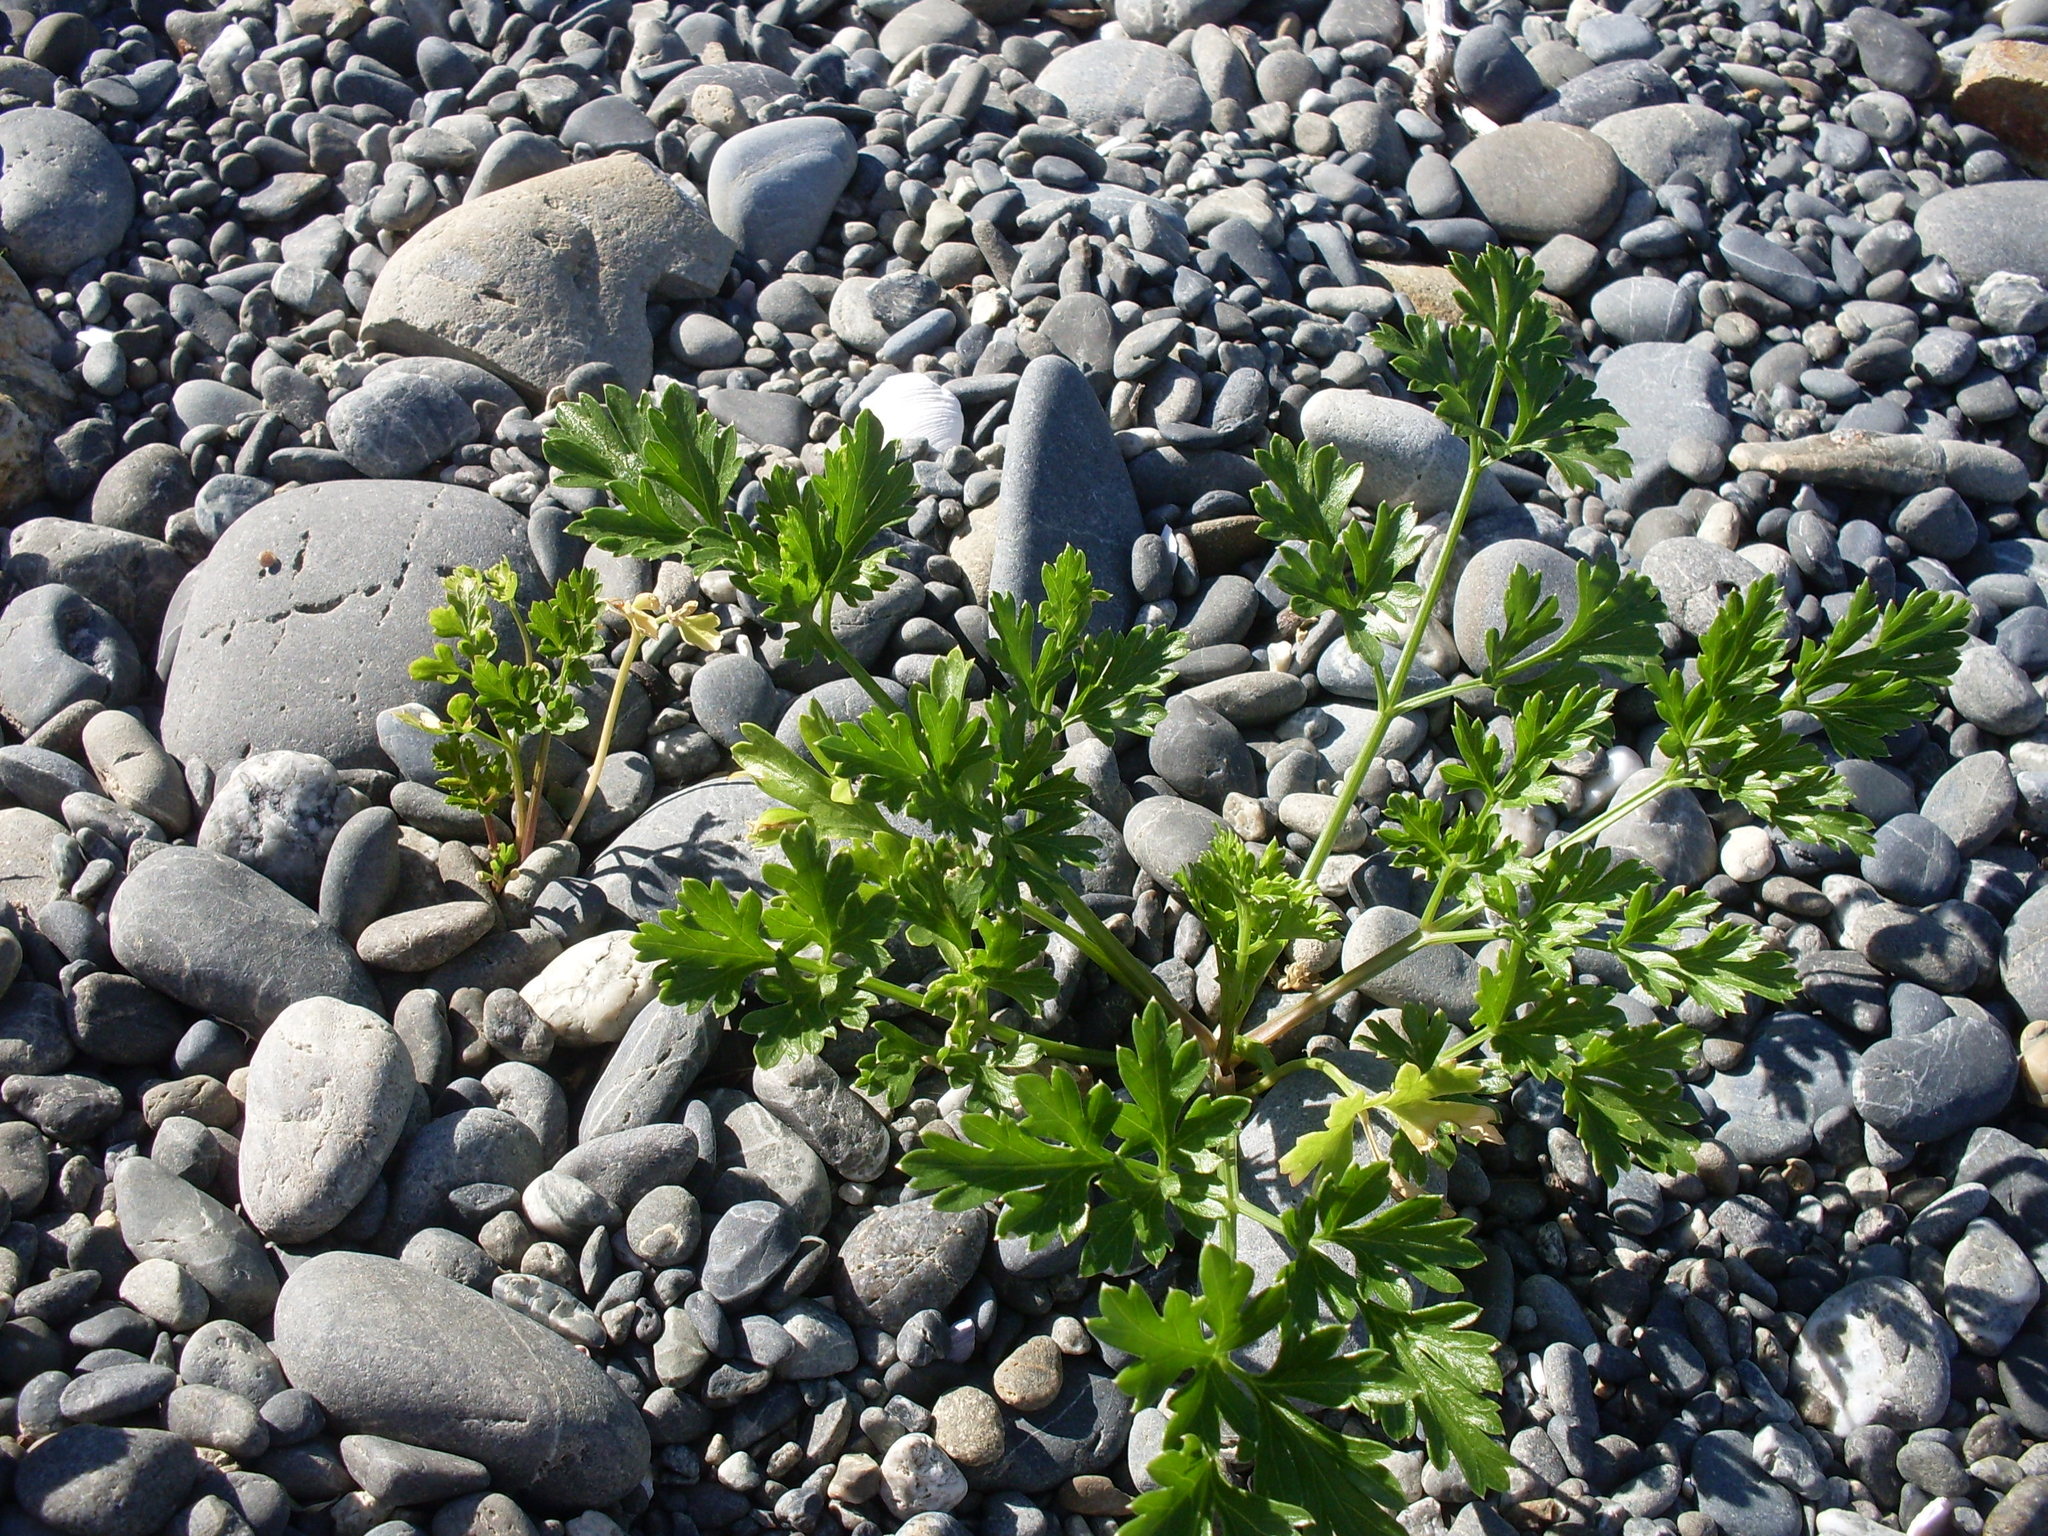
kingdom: Plantae
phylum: Tracheophyta
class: Magnoliopsida
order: Apiales
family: Apiaceae
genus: Apium
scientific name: Apium prostratum
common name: Prostrate marshwort
